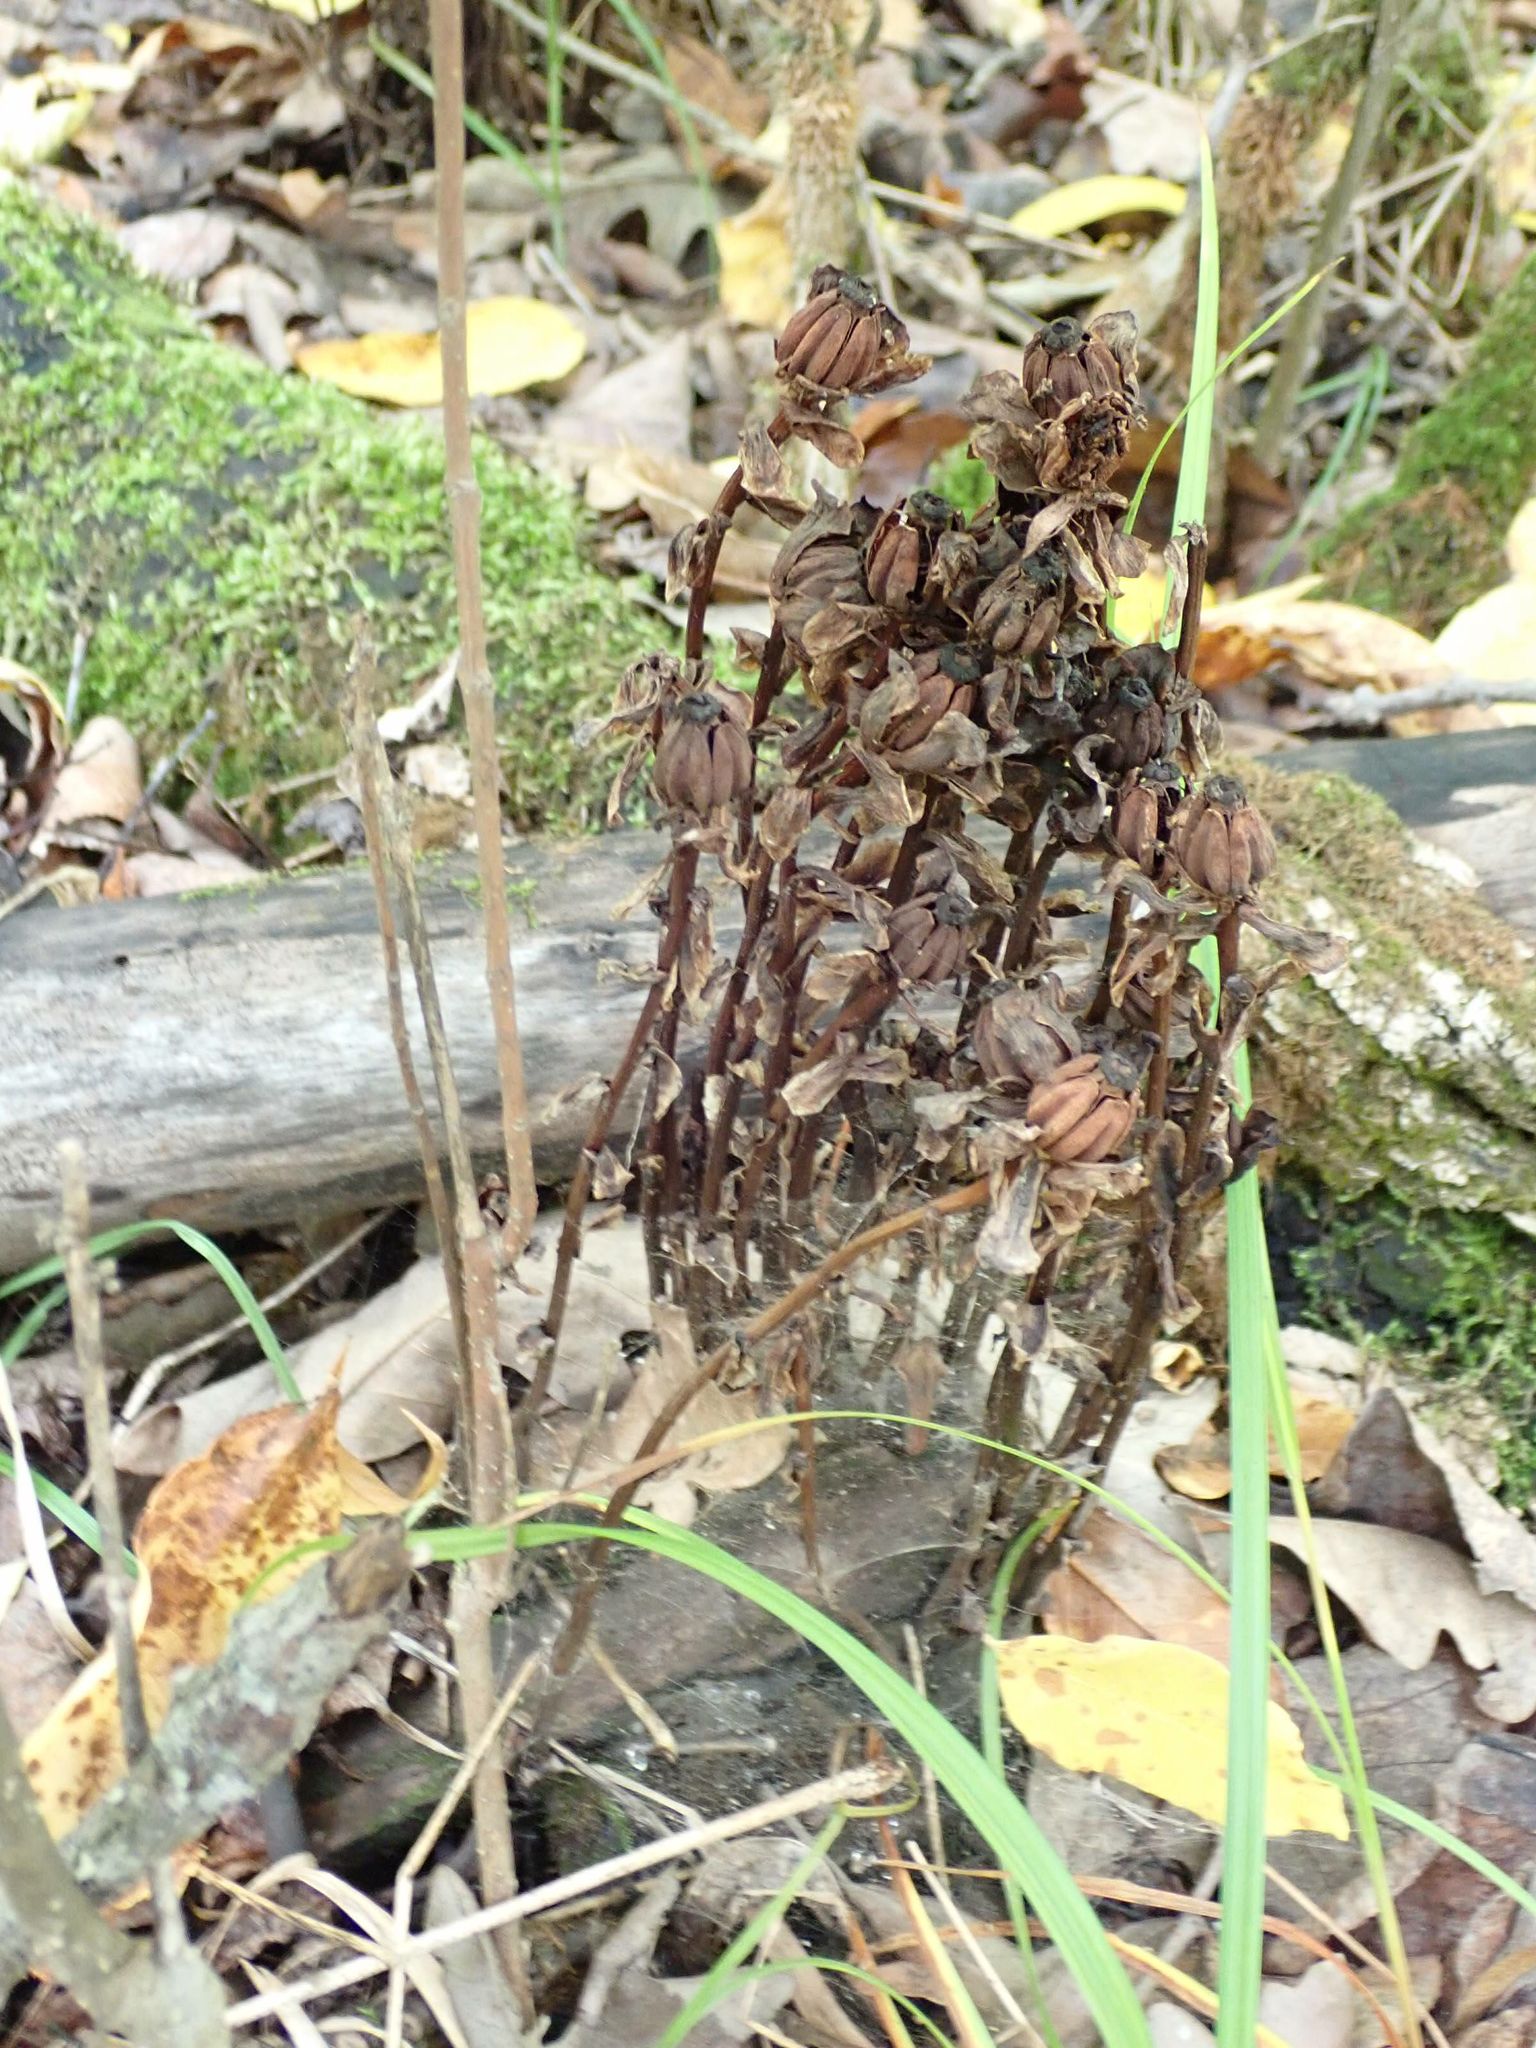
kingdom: Plantae
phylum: Tracheophyta
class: Magnoliopsida
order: Ericales
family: Ericaceae
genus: Monotropa
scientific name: Monotropa uniflora
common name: Convulsion root
